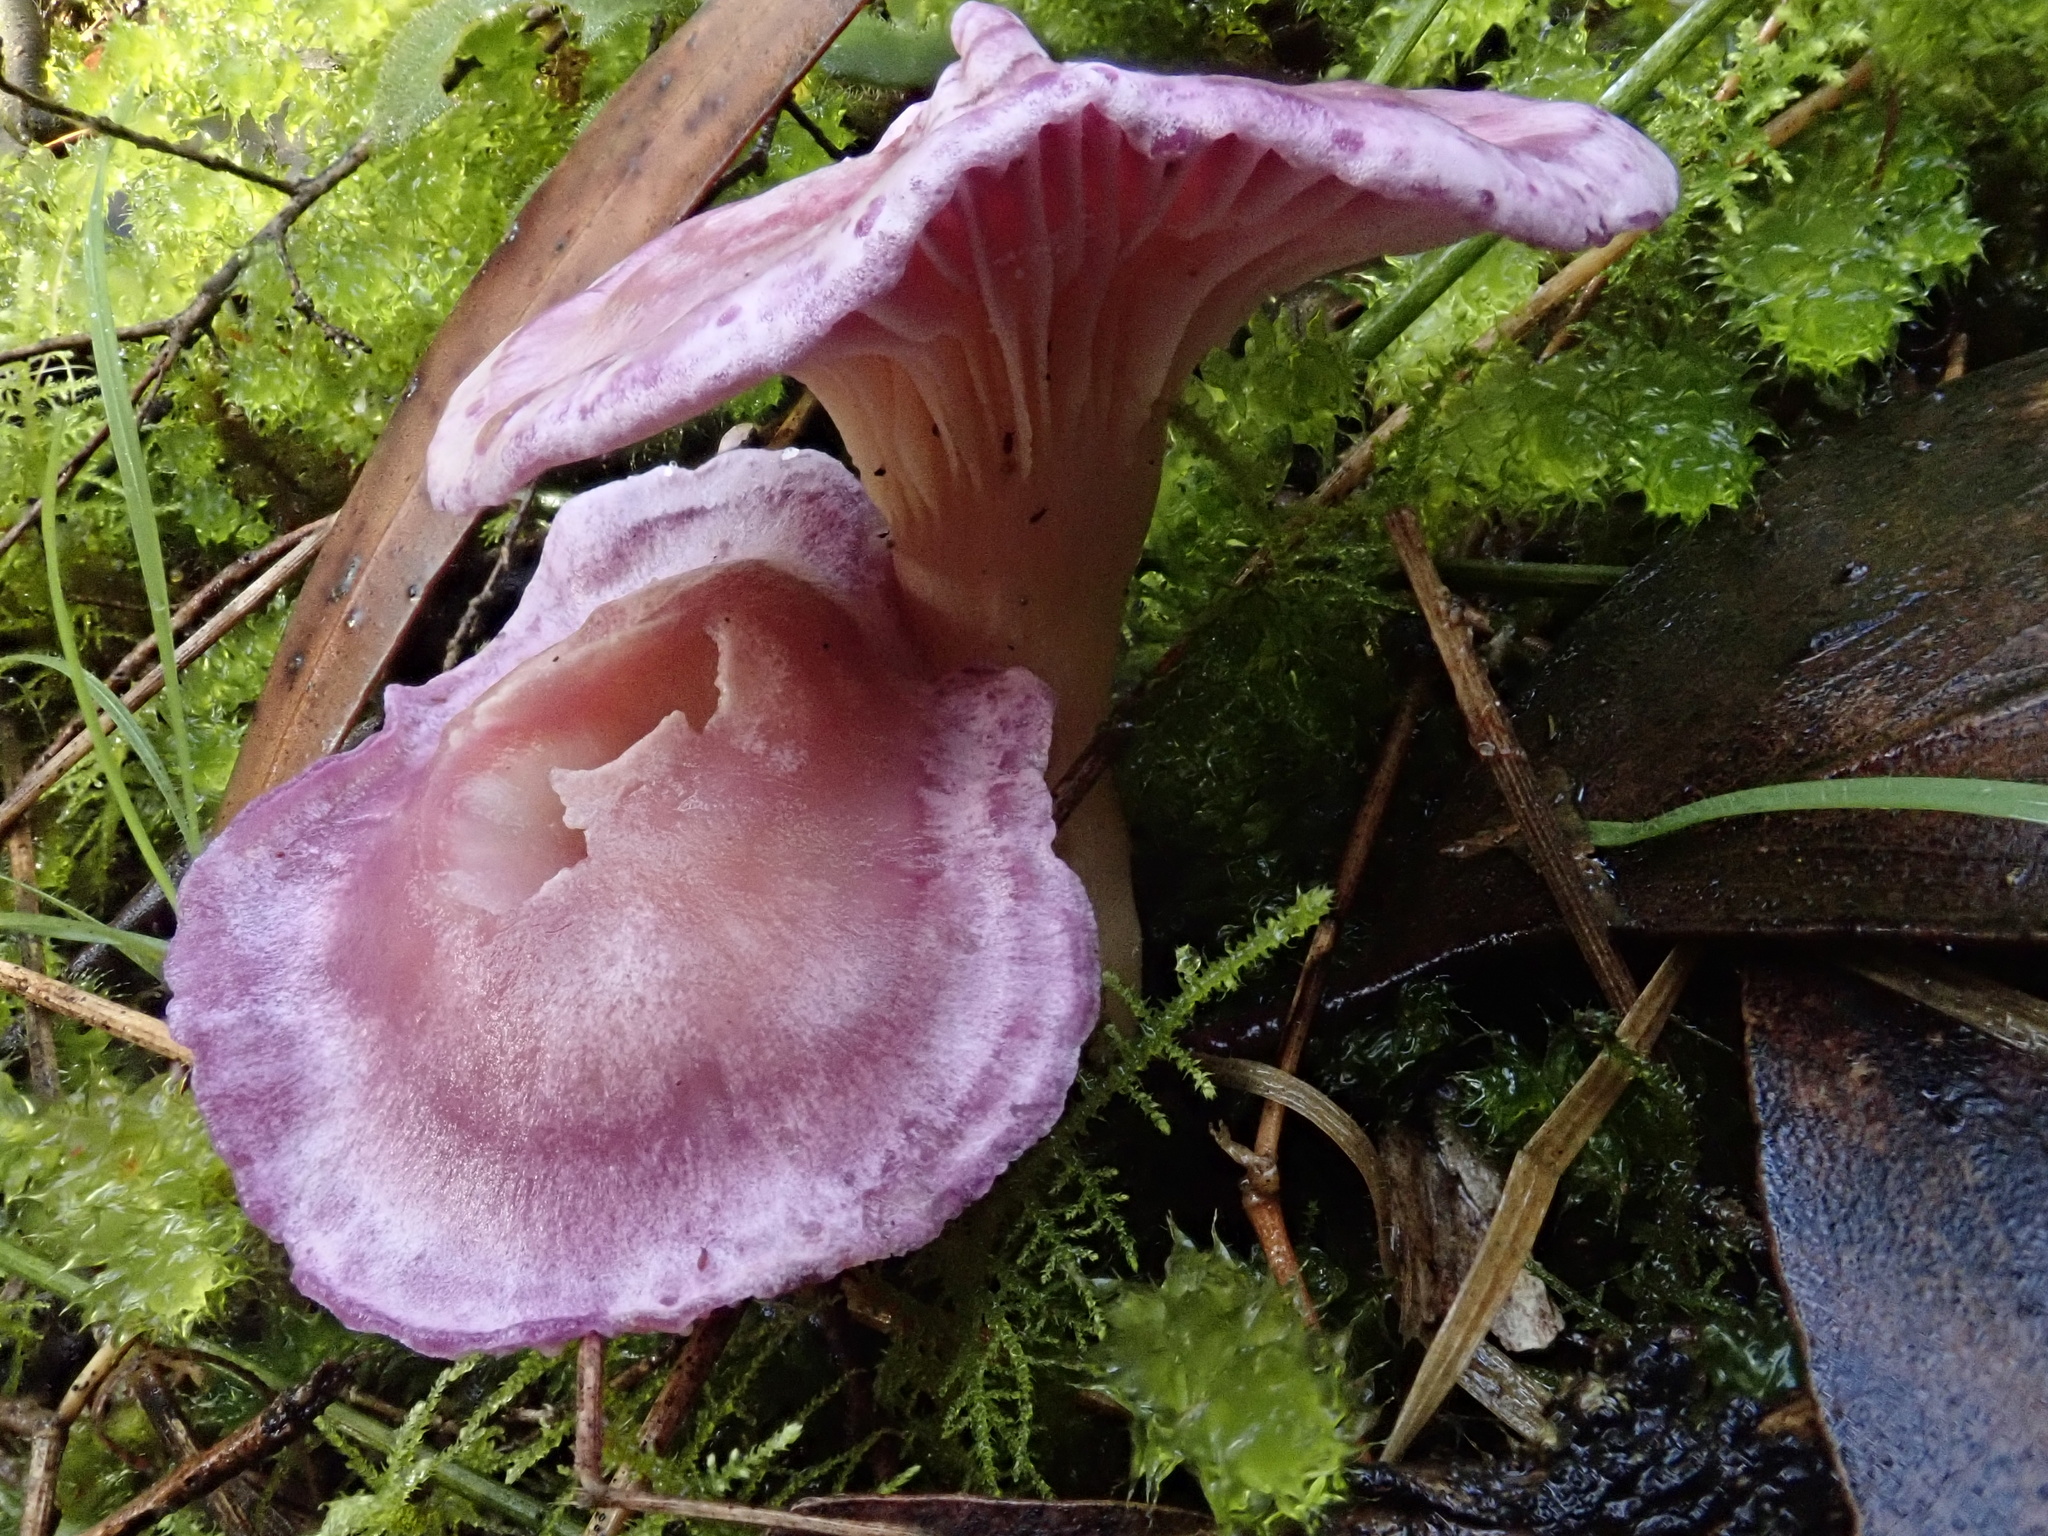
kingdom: Fungi
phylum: Basidiomycota
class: Agaricomycetes
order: Agaricales
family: Hygrophoraceae
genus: Cuphophyllus
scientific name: Cuphophyllus
